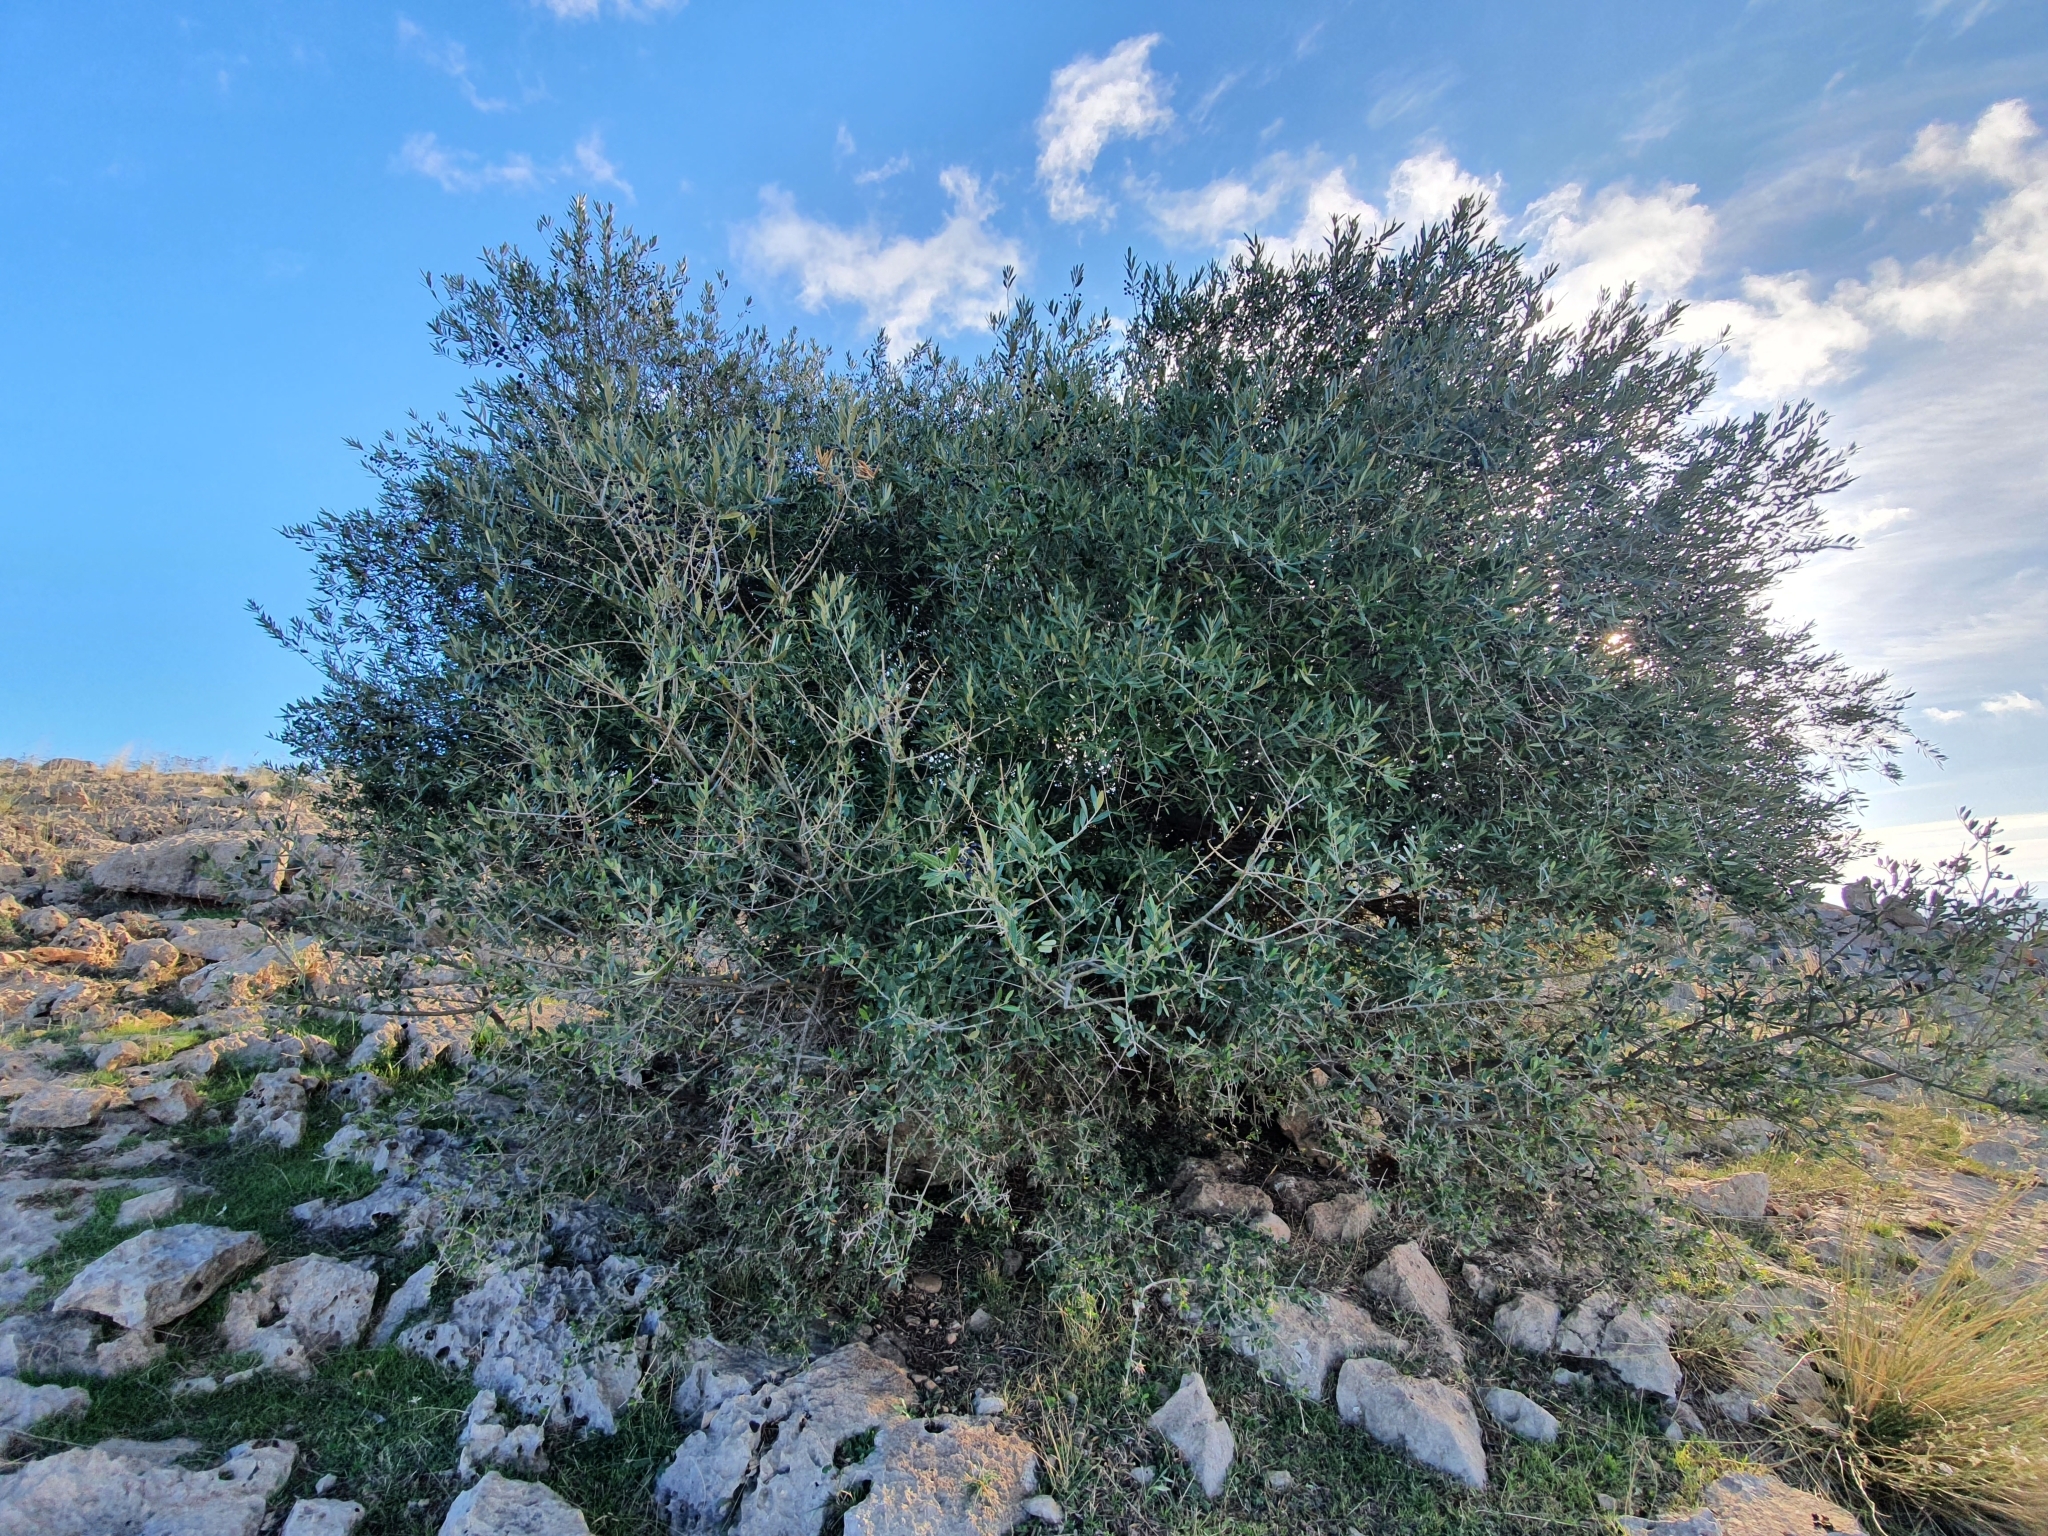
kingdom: Plantae
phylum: Tracheophyta
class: Magnoliopsida
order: Lamiales
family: Oleaceae
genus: Olea
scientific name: Olea europaea
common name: Olive
